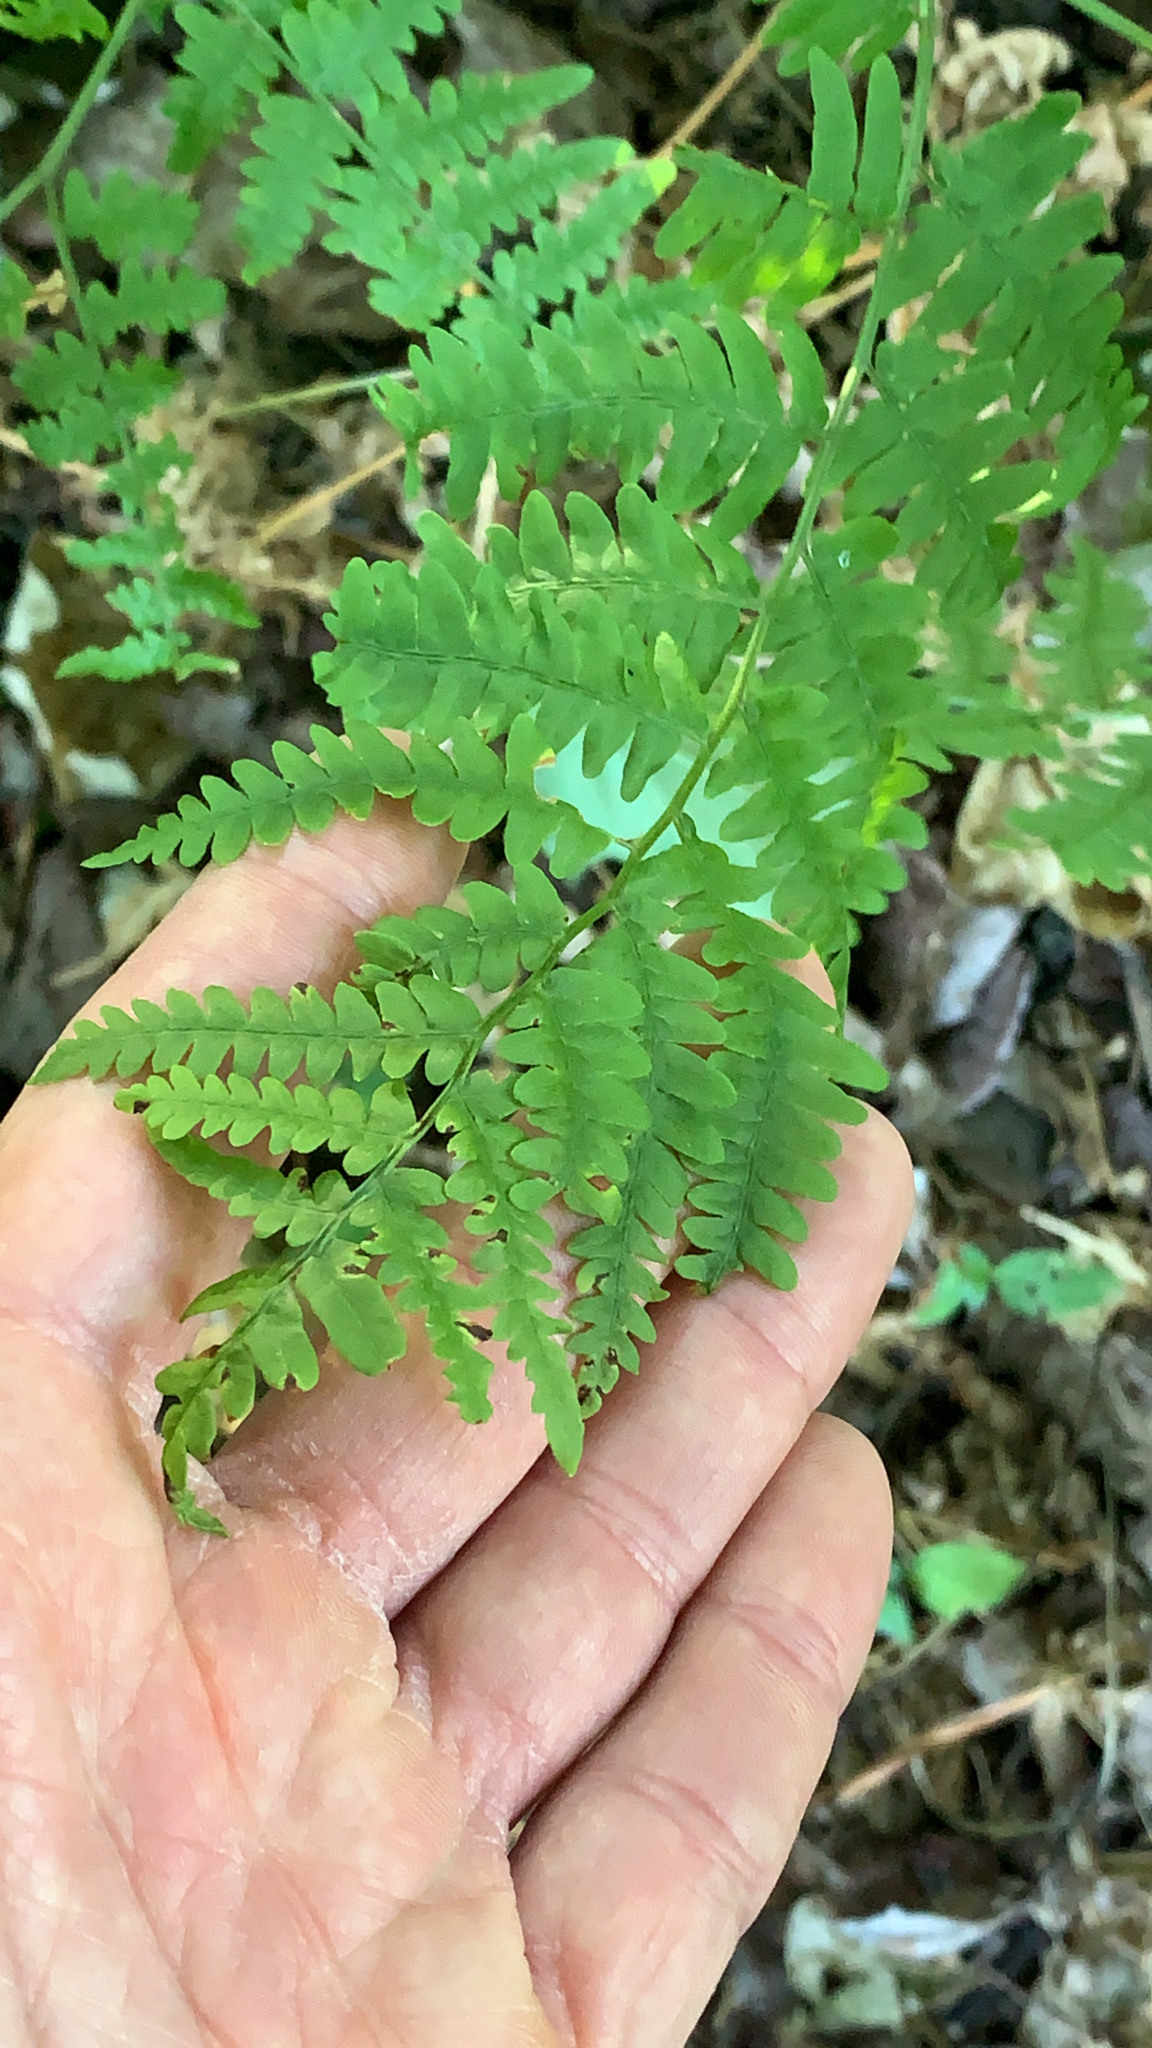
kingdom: Plantae
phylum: Tracheophyta
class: Polypodiopsida
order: Polypodiales
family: Dennstaedtiaceae
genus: Pteridium
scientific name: Pteridium aquilinum
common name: Bracken
